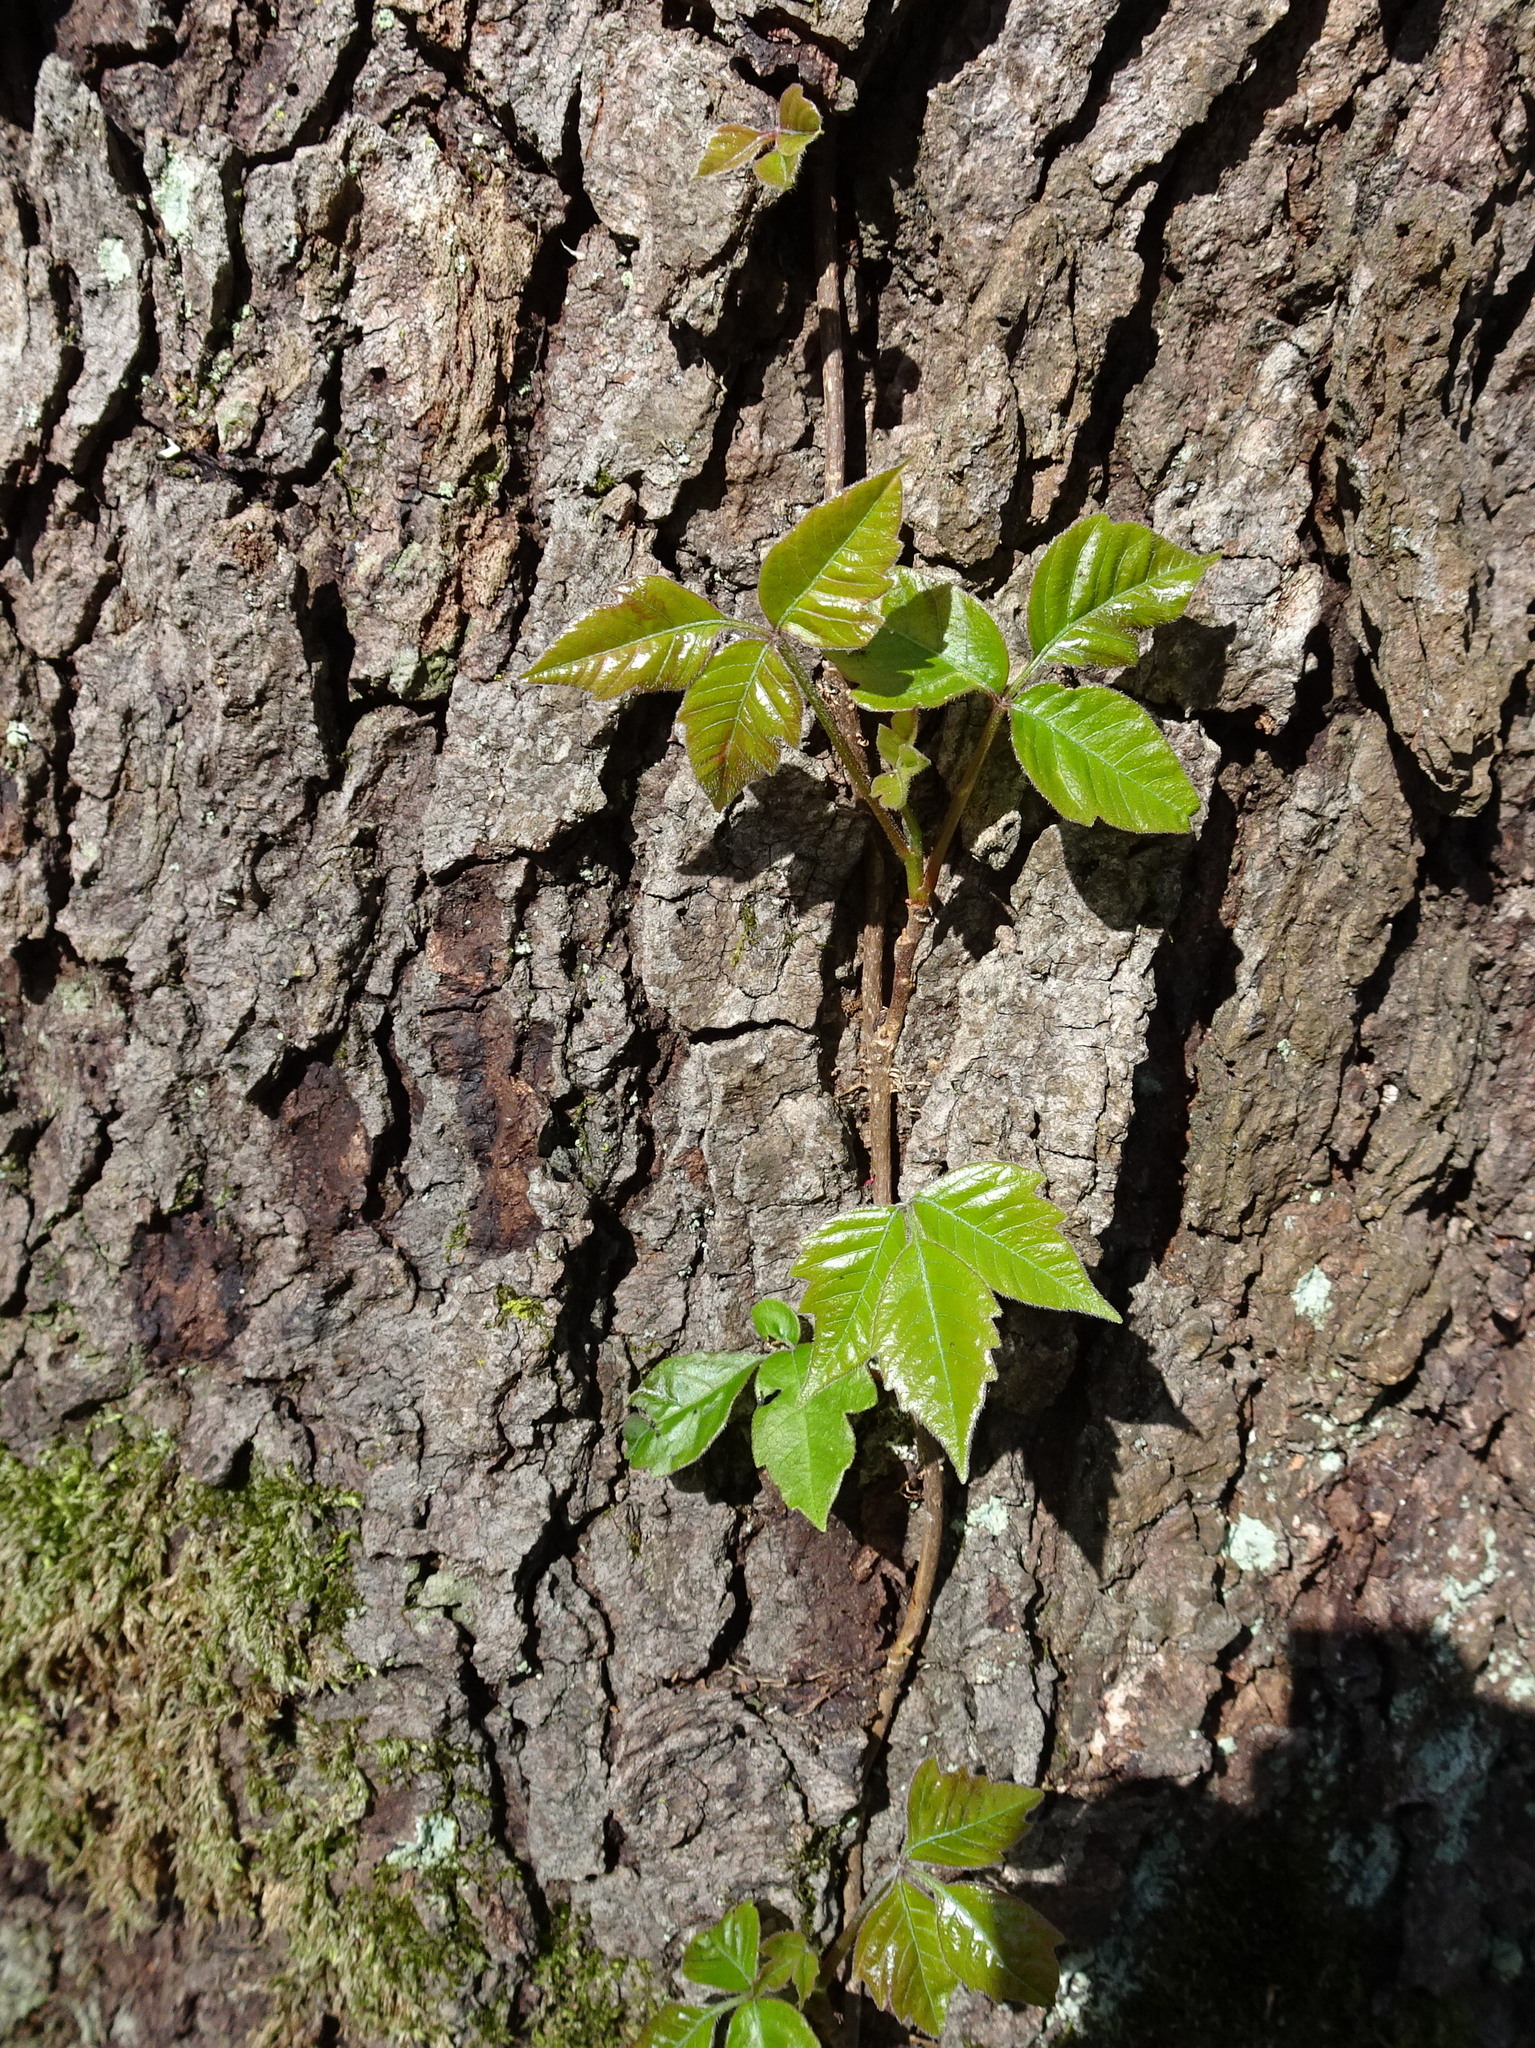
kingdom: Plantae
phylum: Tracheophyta
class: Magnoliopsida
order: Sapindales
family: Anacardiaceae
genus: Toxicodendron
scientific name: Toxicodendron radicans
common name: Poison ivy
